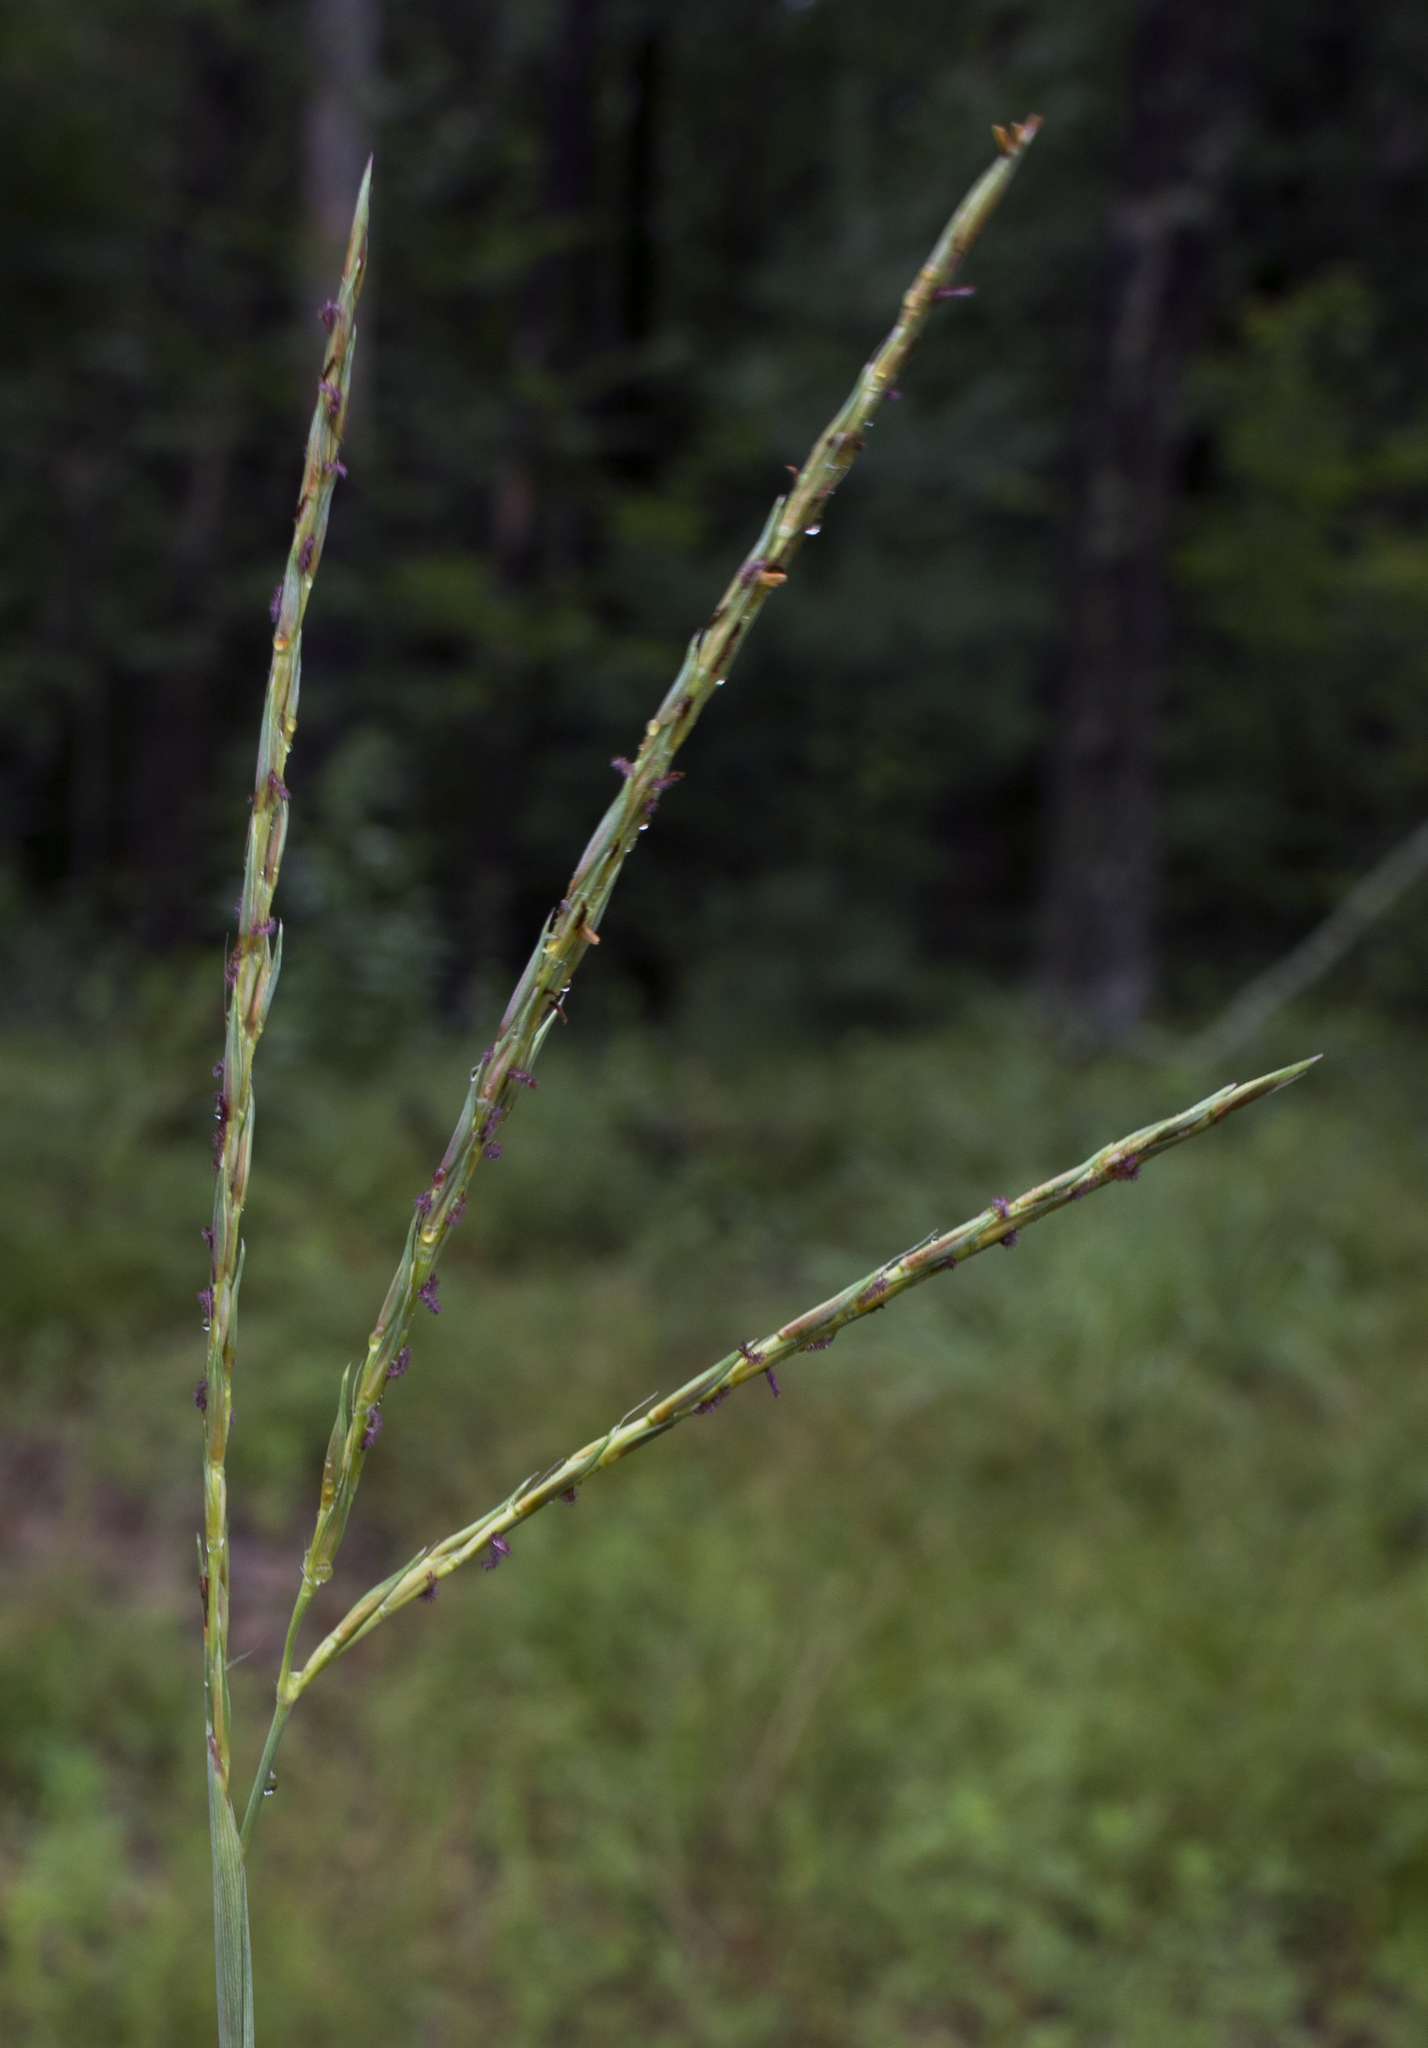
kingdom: Plantae
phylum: Tracheophyta
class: Liliopsida
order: Poales
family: Poaceae
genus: Andropogon
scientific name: Andropogon gerardi
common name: Big bluestem
